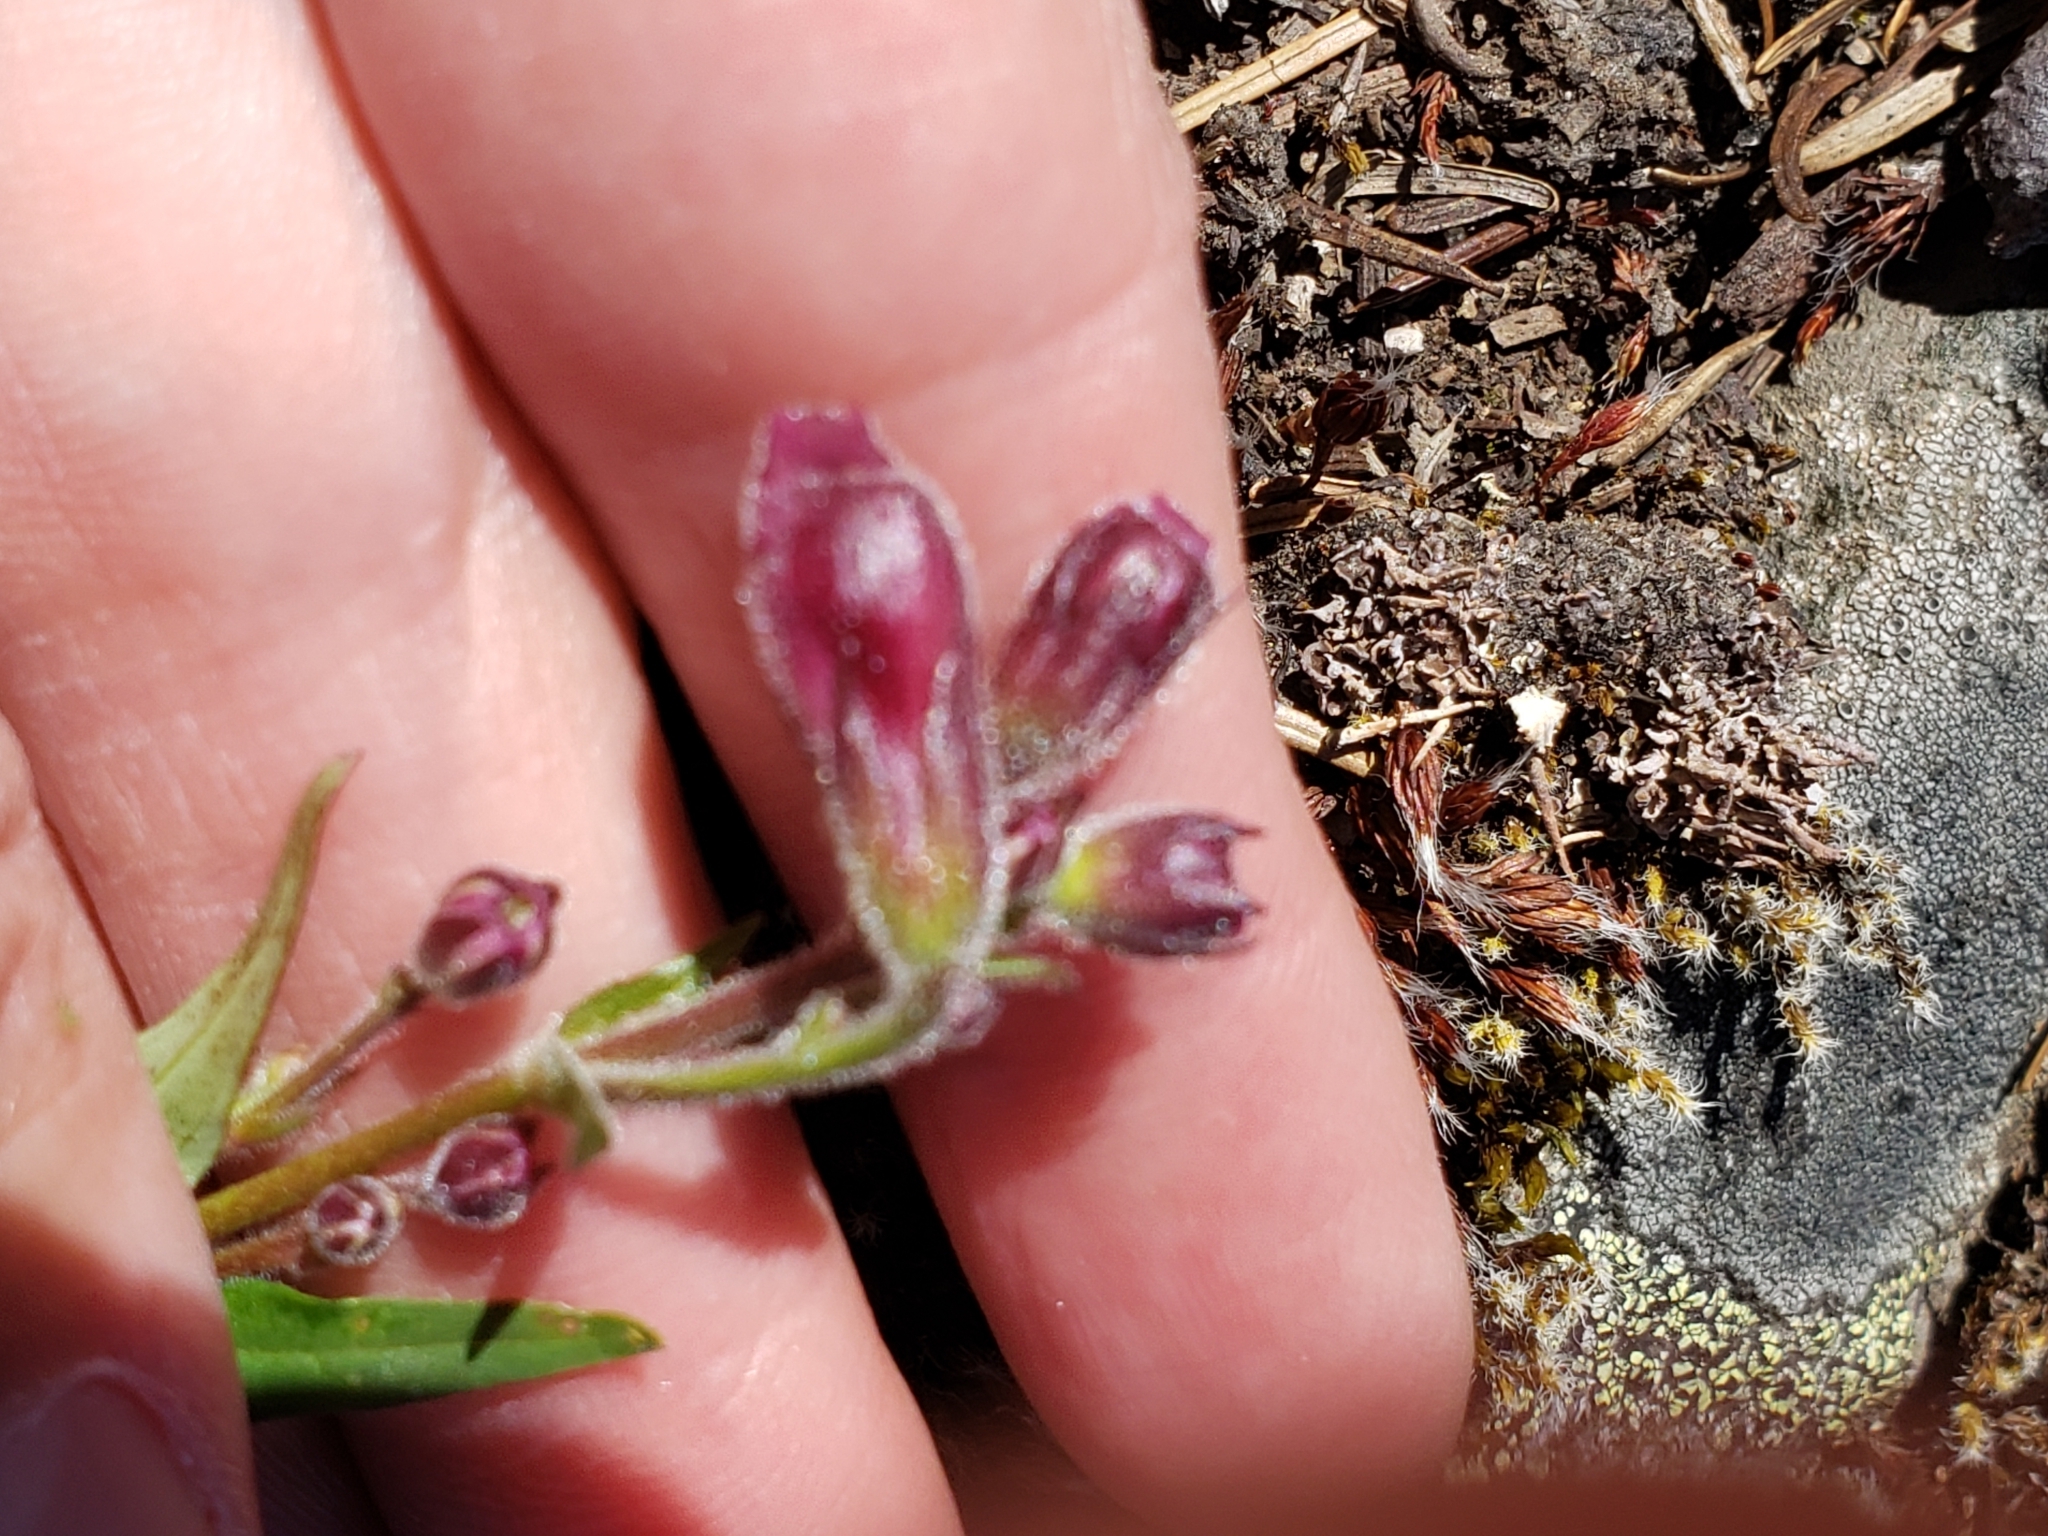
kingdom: Plantae
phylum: Tracheophyta
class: Magnoliopsida
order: Lamiales
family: Plantaginaceae
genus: Nothochelone
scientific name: Nothochelone nemorosa
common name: Woodland beardtongue
